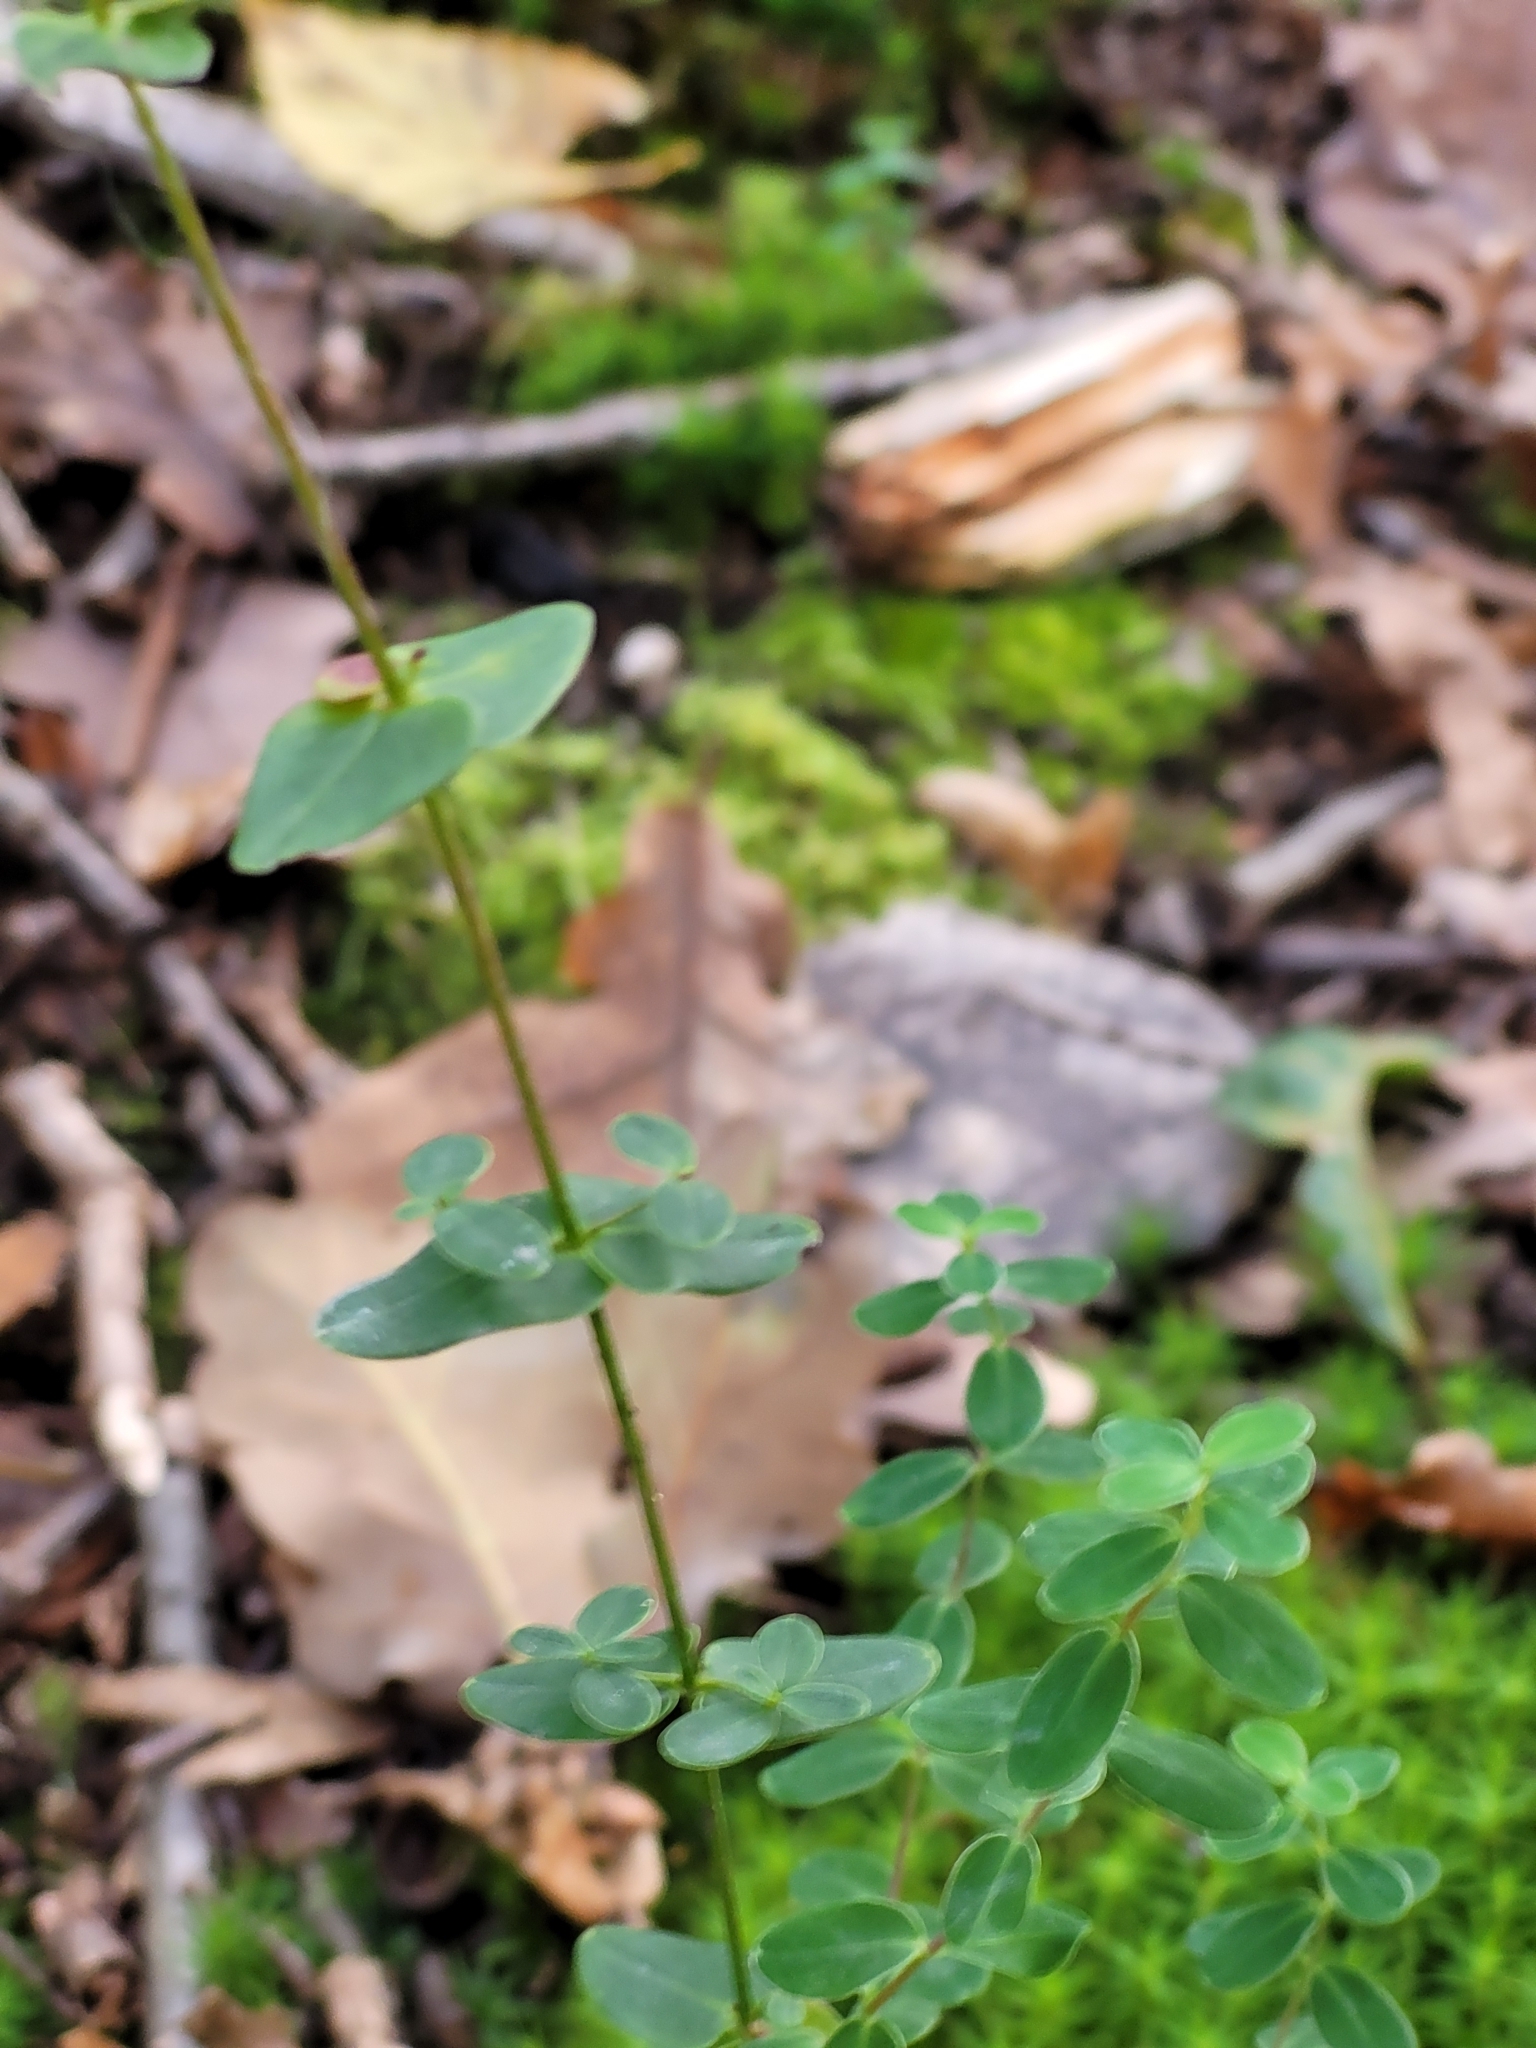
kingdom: Plantae
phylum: Tracheophyta
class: Magnoliopsida
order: Malpighiales
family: Hypericaceae
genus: Hypericum
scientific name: Hypericum pulchrum
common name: Slender st. john's-wort
